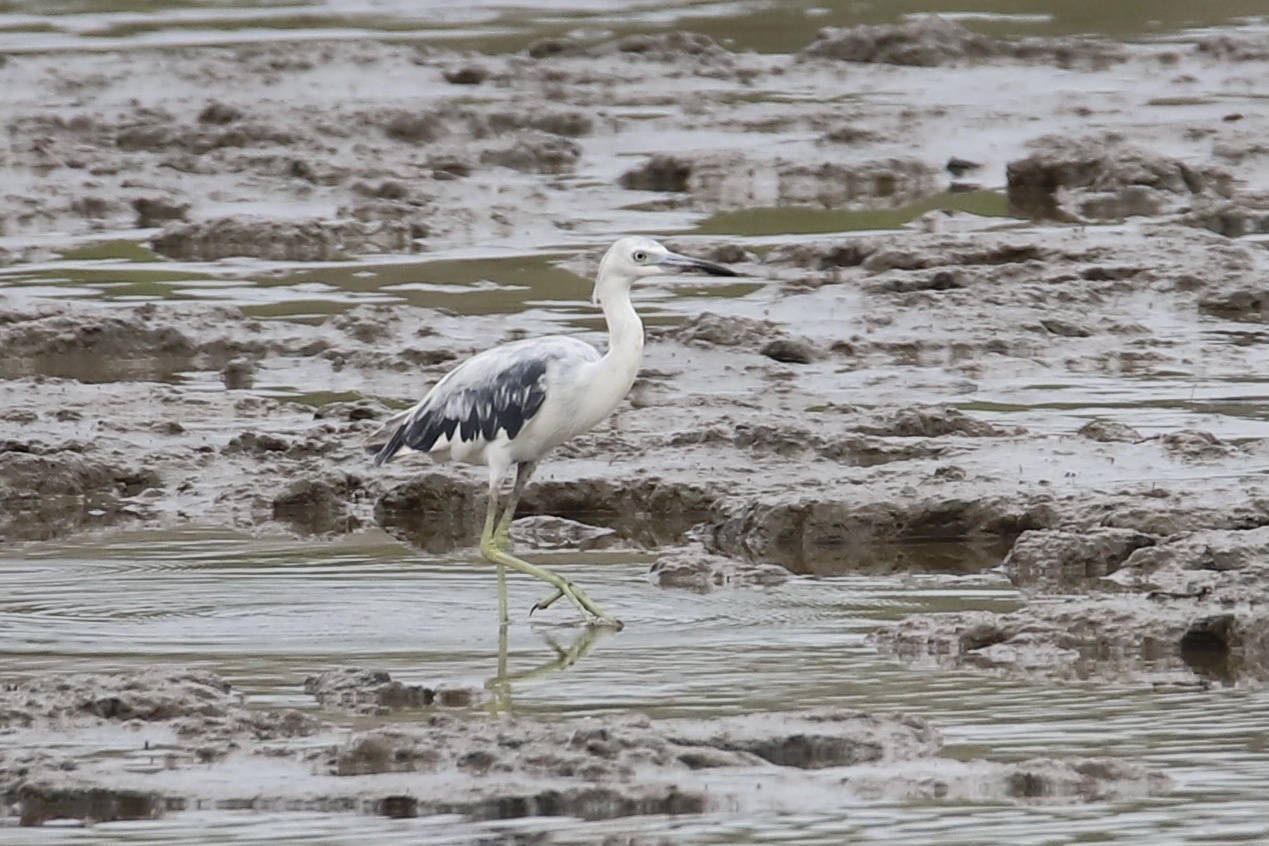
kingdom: Animalia
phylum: Chordata
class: Aves
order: Pelecaniformes
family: Ardeidae
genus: Egretta
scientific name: Egretta caerulea
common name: Little blue heron
